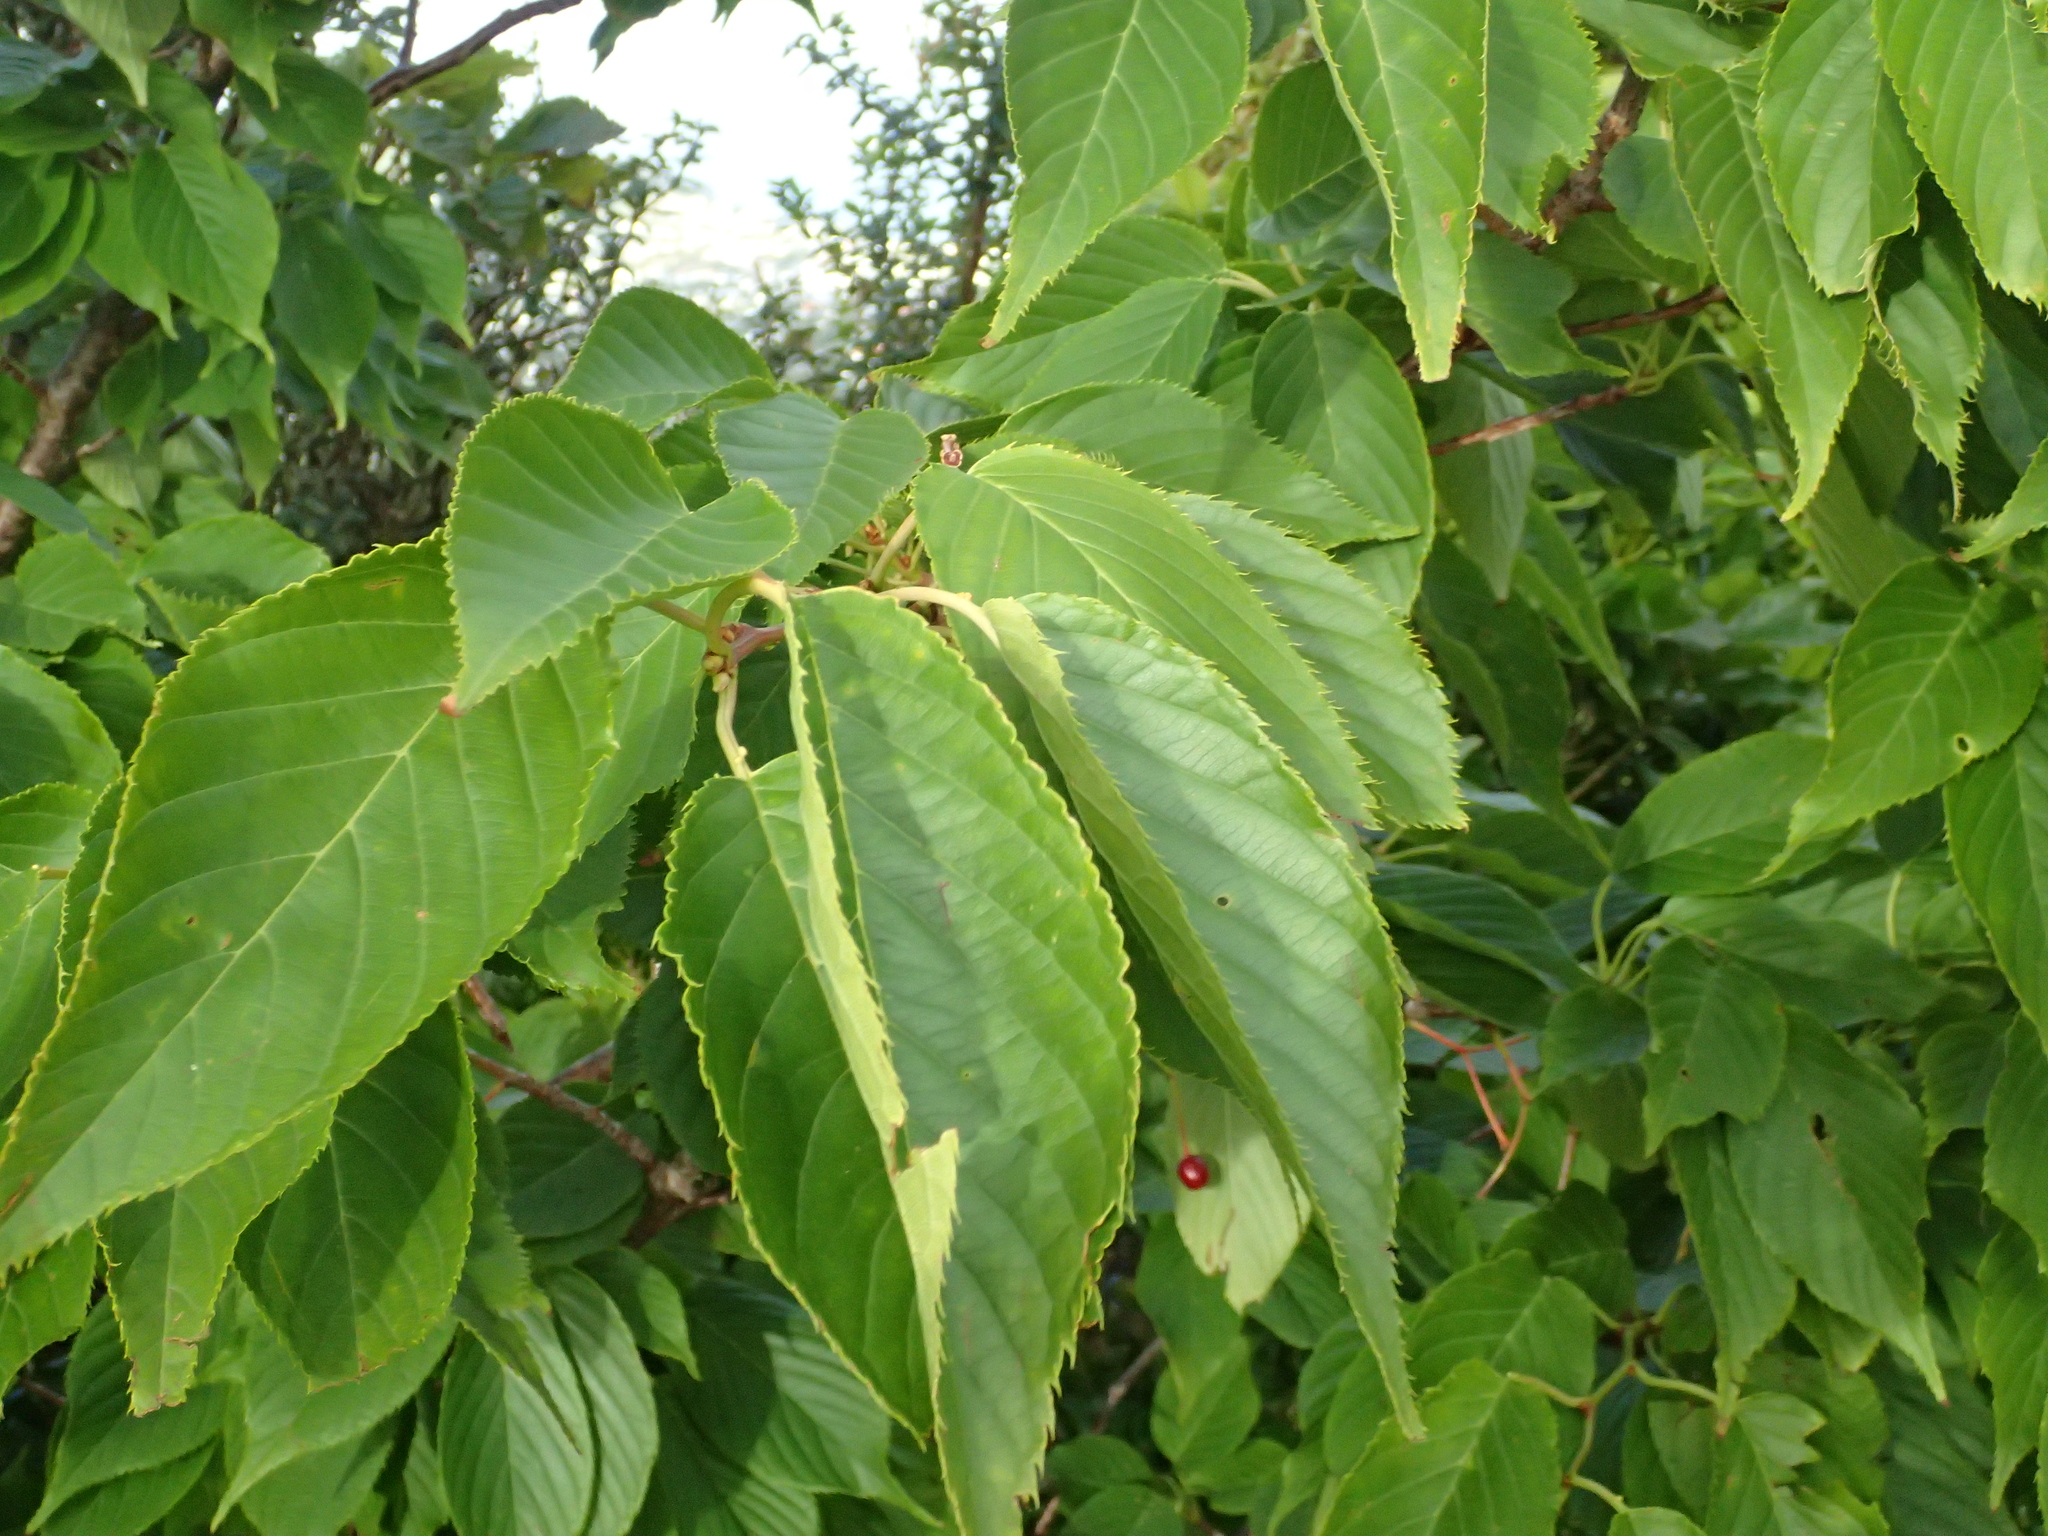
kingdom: Plantae
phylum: Tracheophyta
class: Magnoliopsida
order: Rosales
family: Rosaceae
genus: Prunus
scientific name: Prunus serrulata
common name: Japanese cherry
